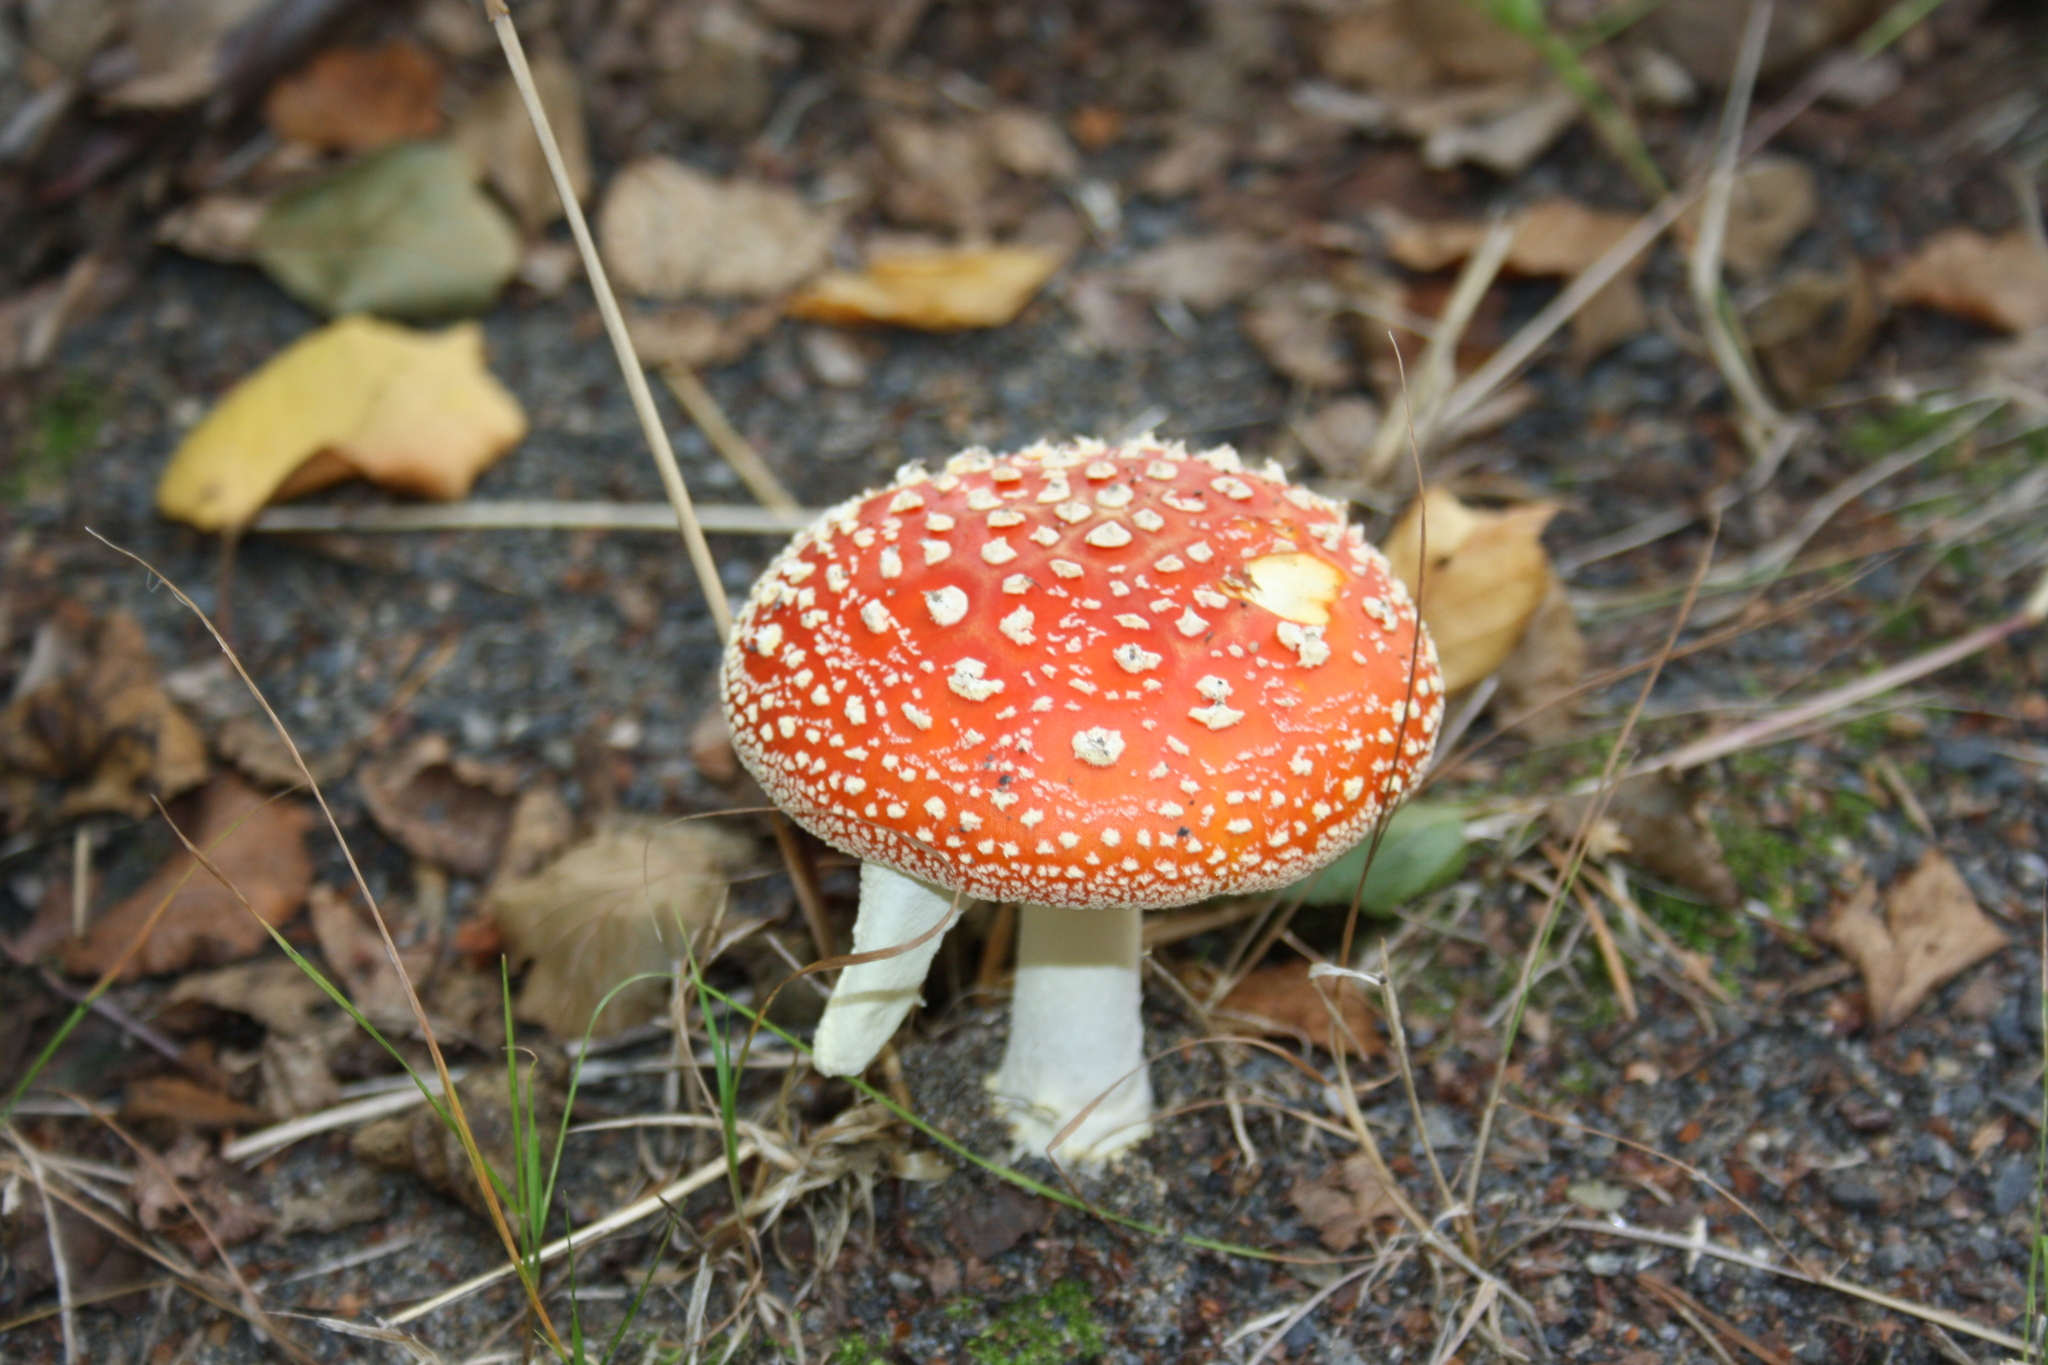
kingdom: Fungi
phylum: Basidiomycota
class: Agaricomycetes
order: Agaricales
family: Amanitaceae
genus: Amanita
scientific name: Amanita muscaria
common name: Fly agaric
